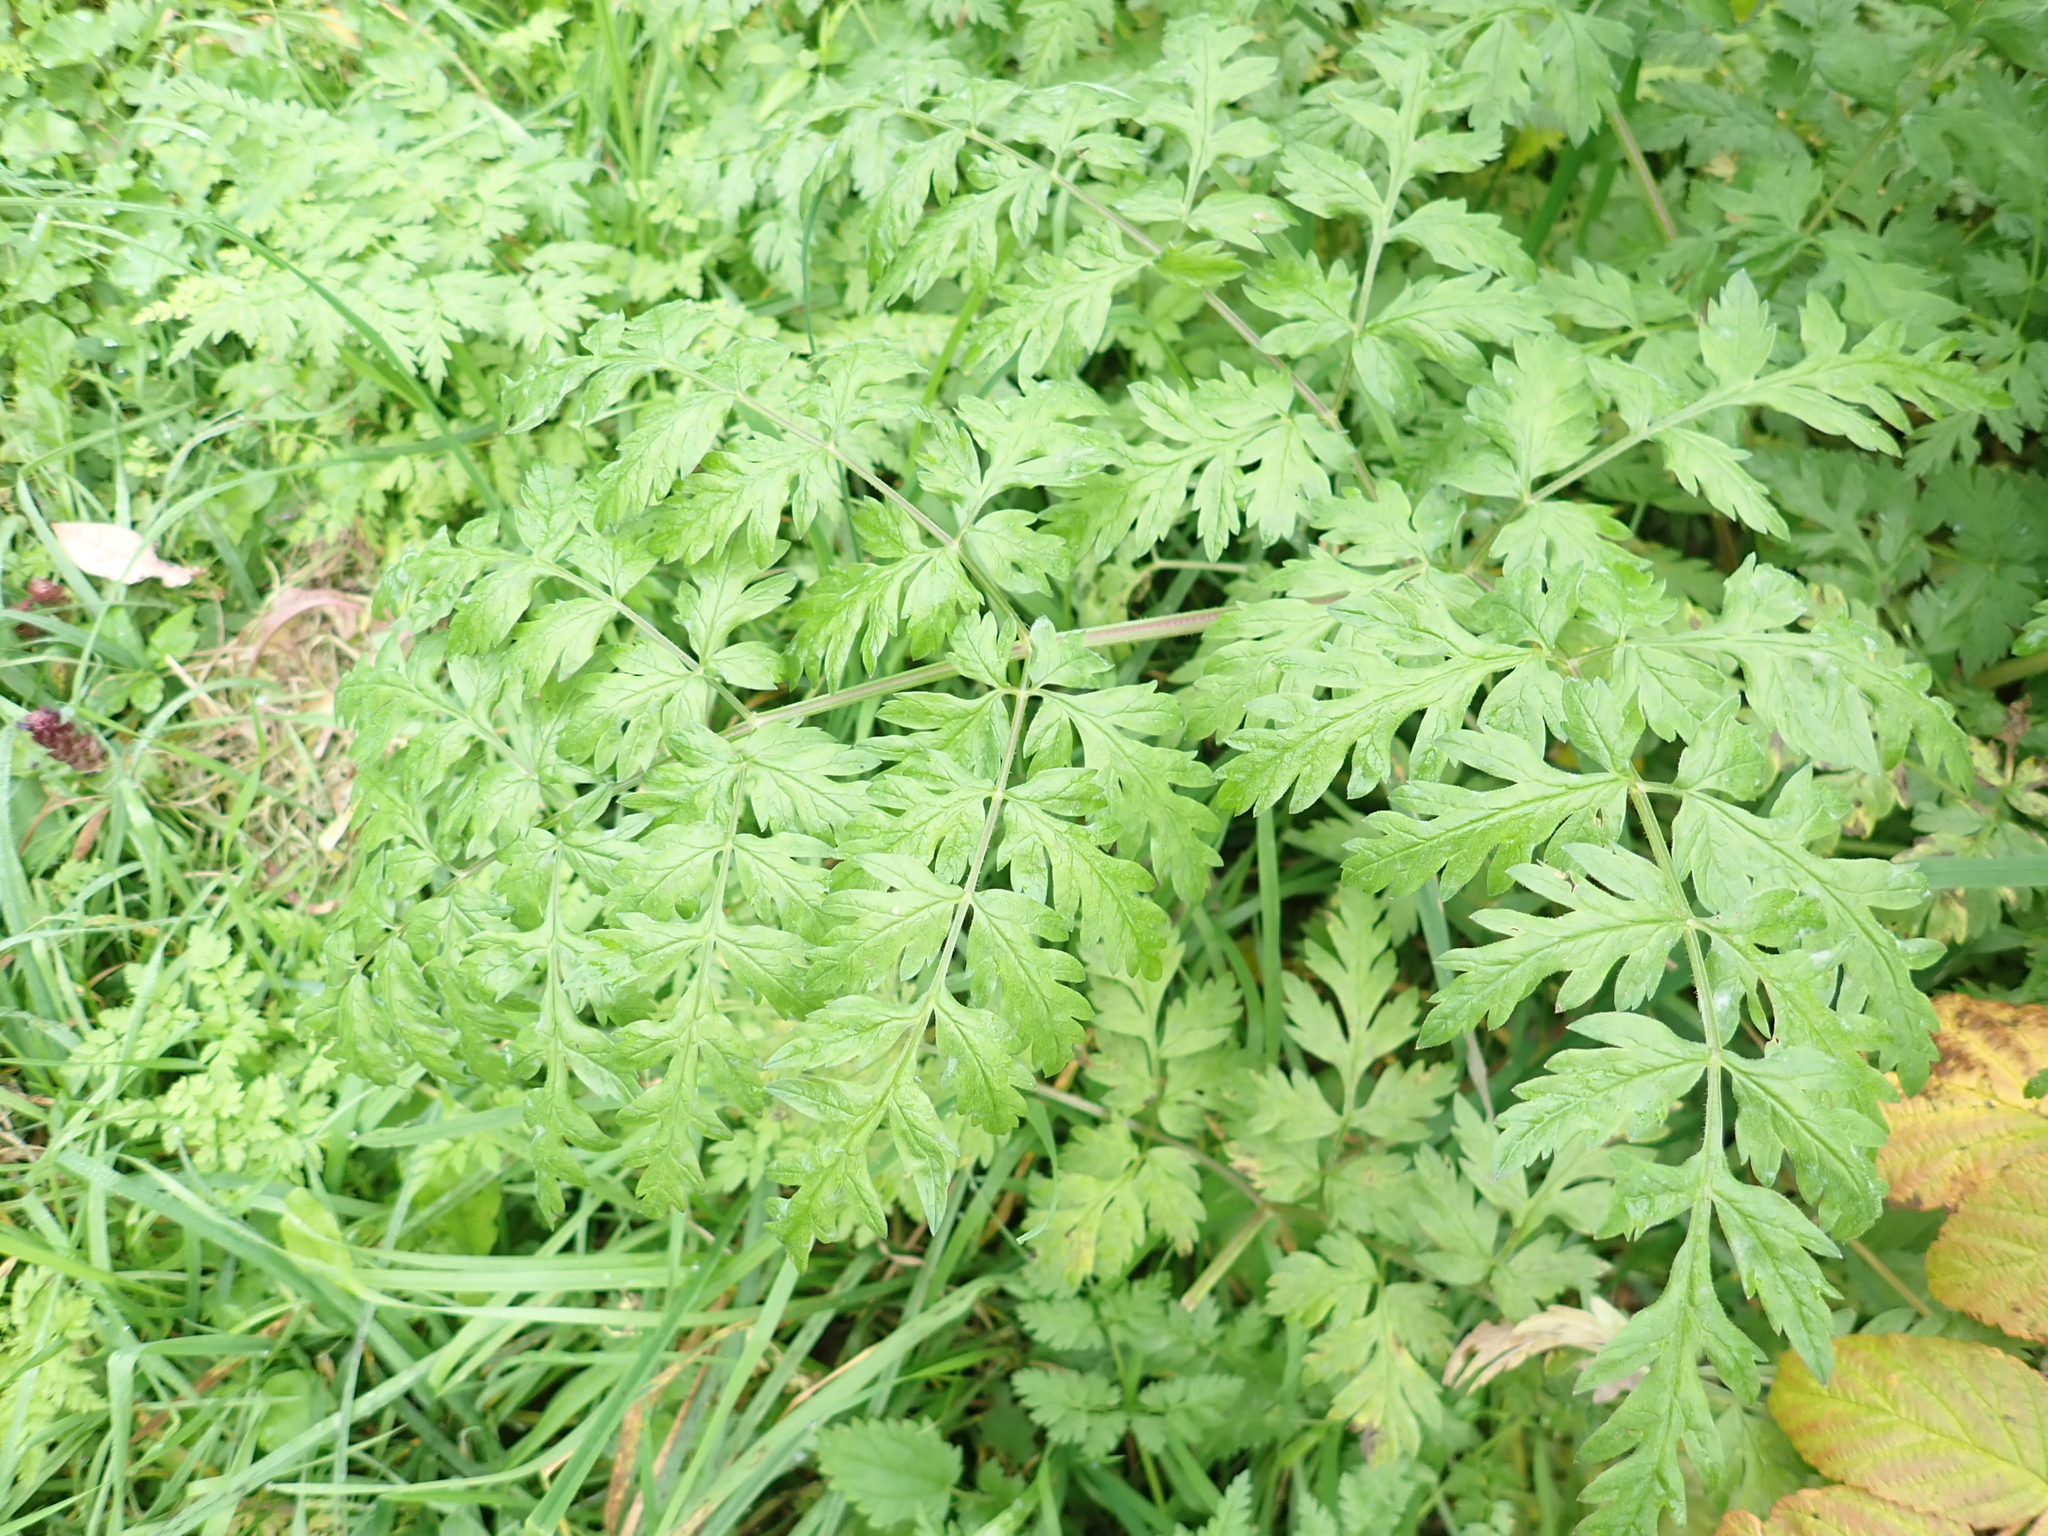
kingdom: Plantae
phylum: Tracheophyta
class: Magnoliopsida
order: Apiales
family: Apiaceae
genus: Anthriscus
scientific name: Anthriscus sylvestris
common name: Cow parsley
